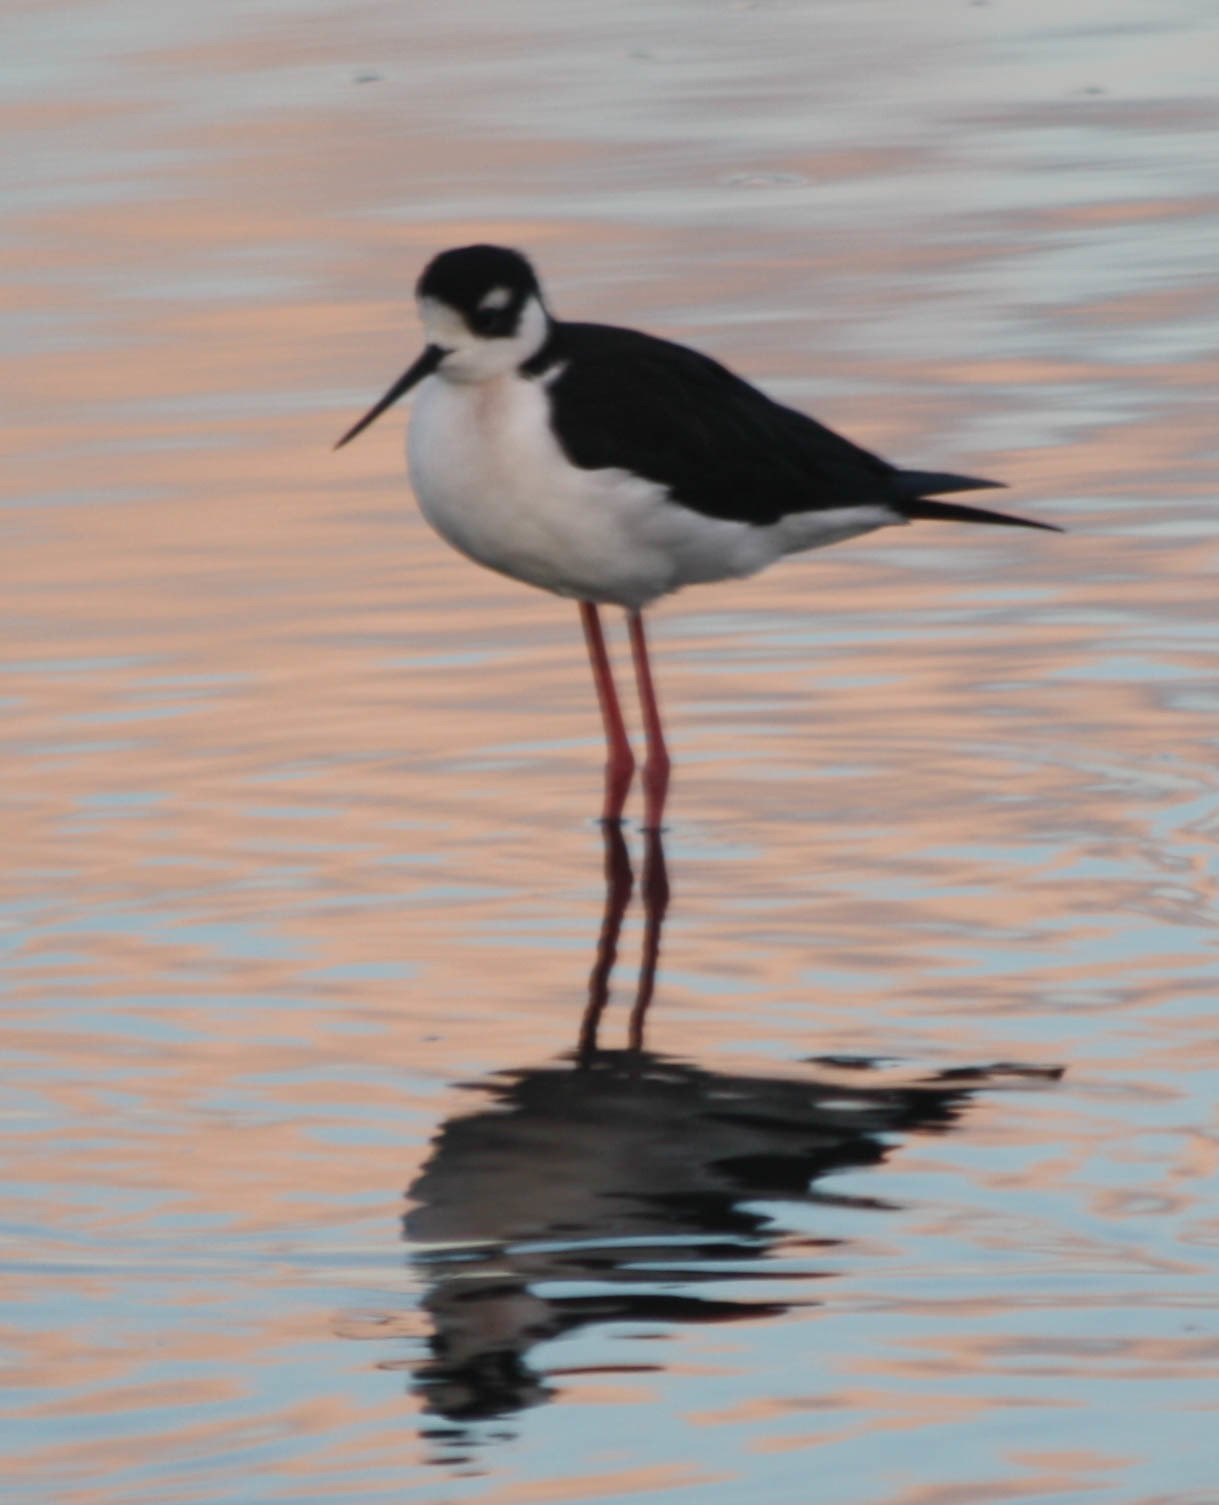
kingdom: Animalia
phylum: Chordata
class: Aves
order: Charadriiformes
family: Recurvirostridae
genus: Himantopus
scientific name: Himantopus mexicanus
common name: Black-necked stilt
